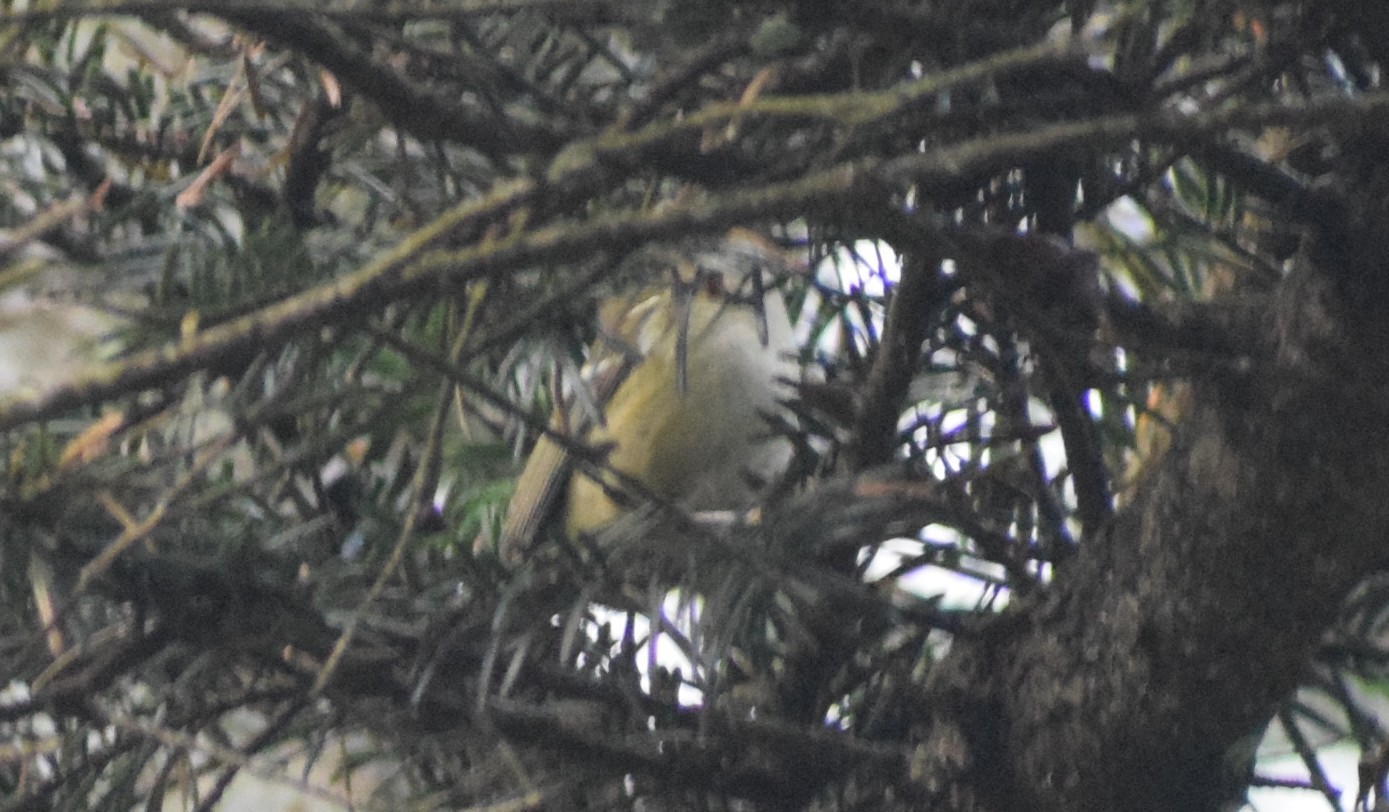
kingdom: Animalia
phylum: Chordata
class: Aves
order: Passeriformes
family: Regulidae
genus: Regulus
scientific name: Regulus regulus
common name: Goldcrest
